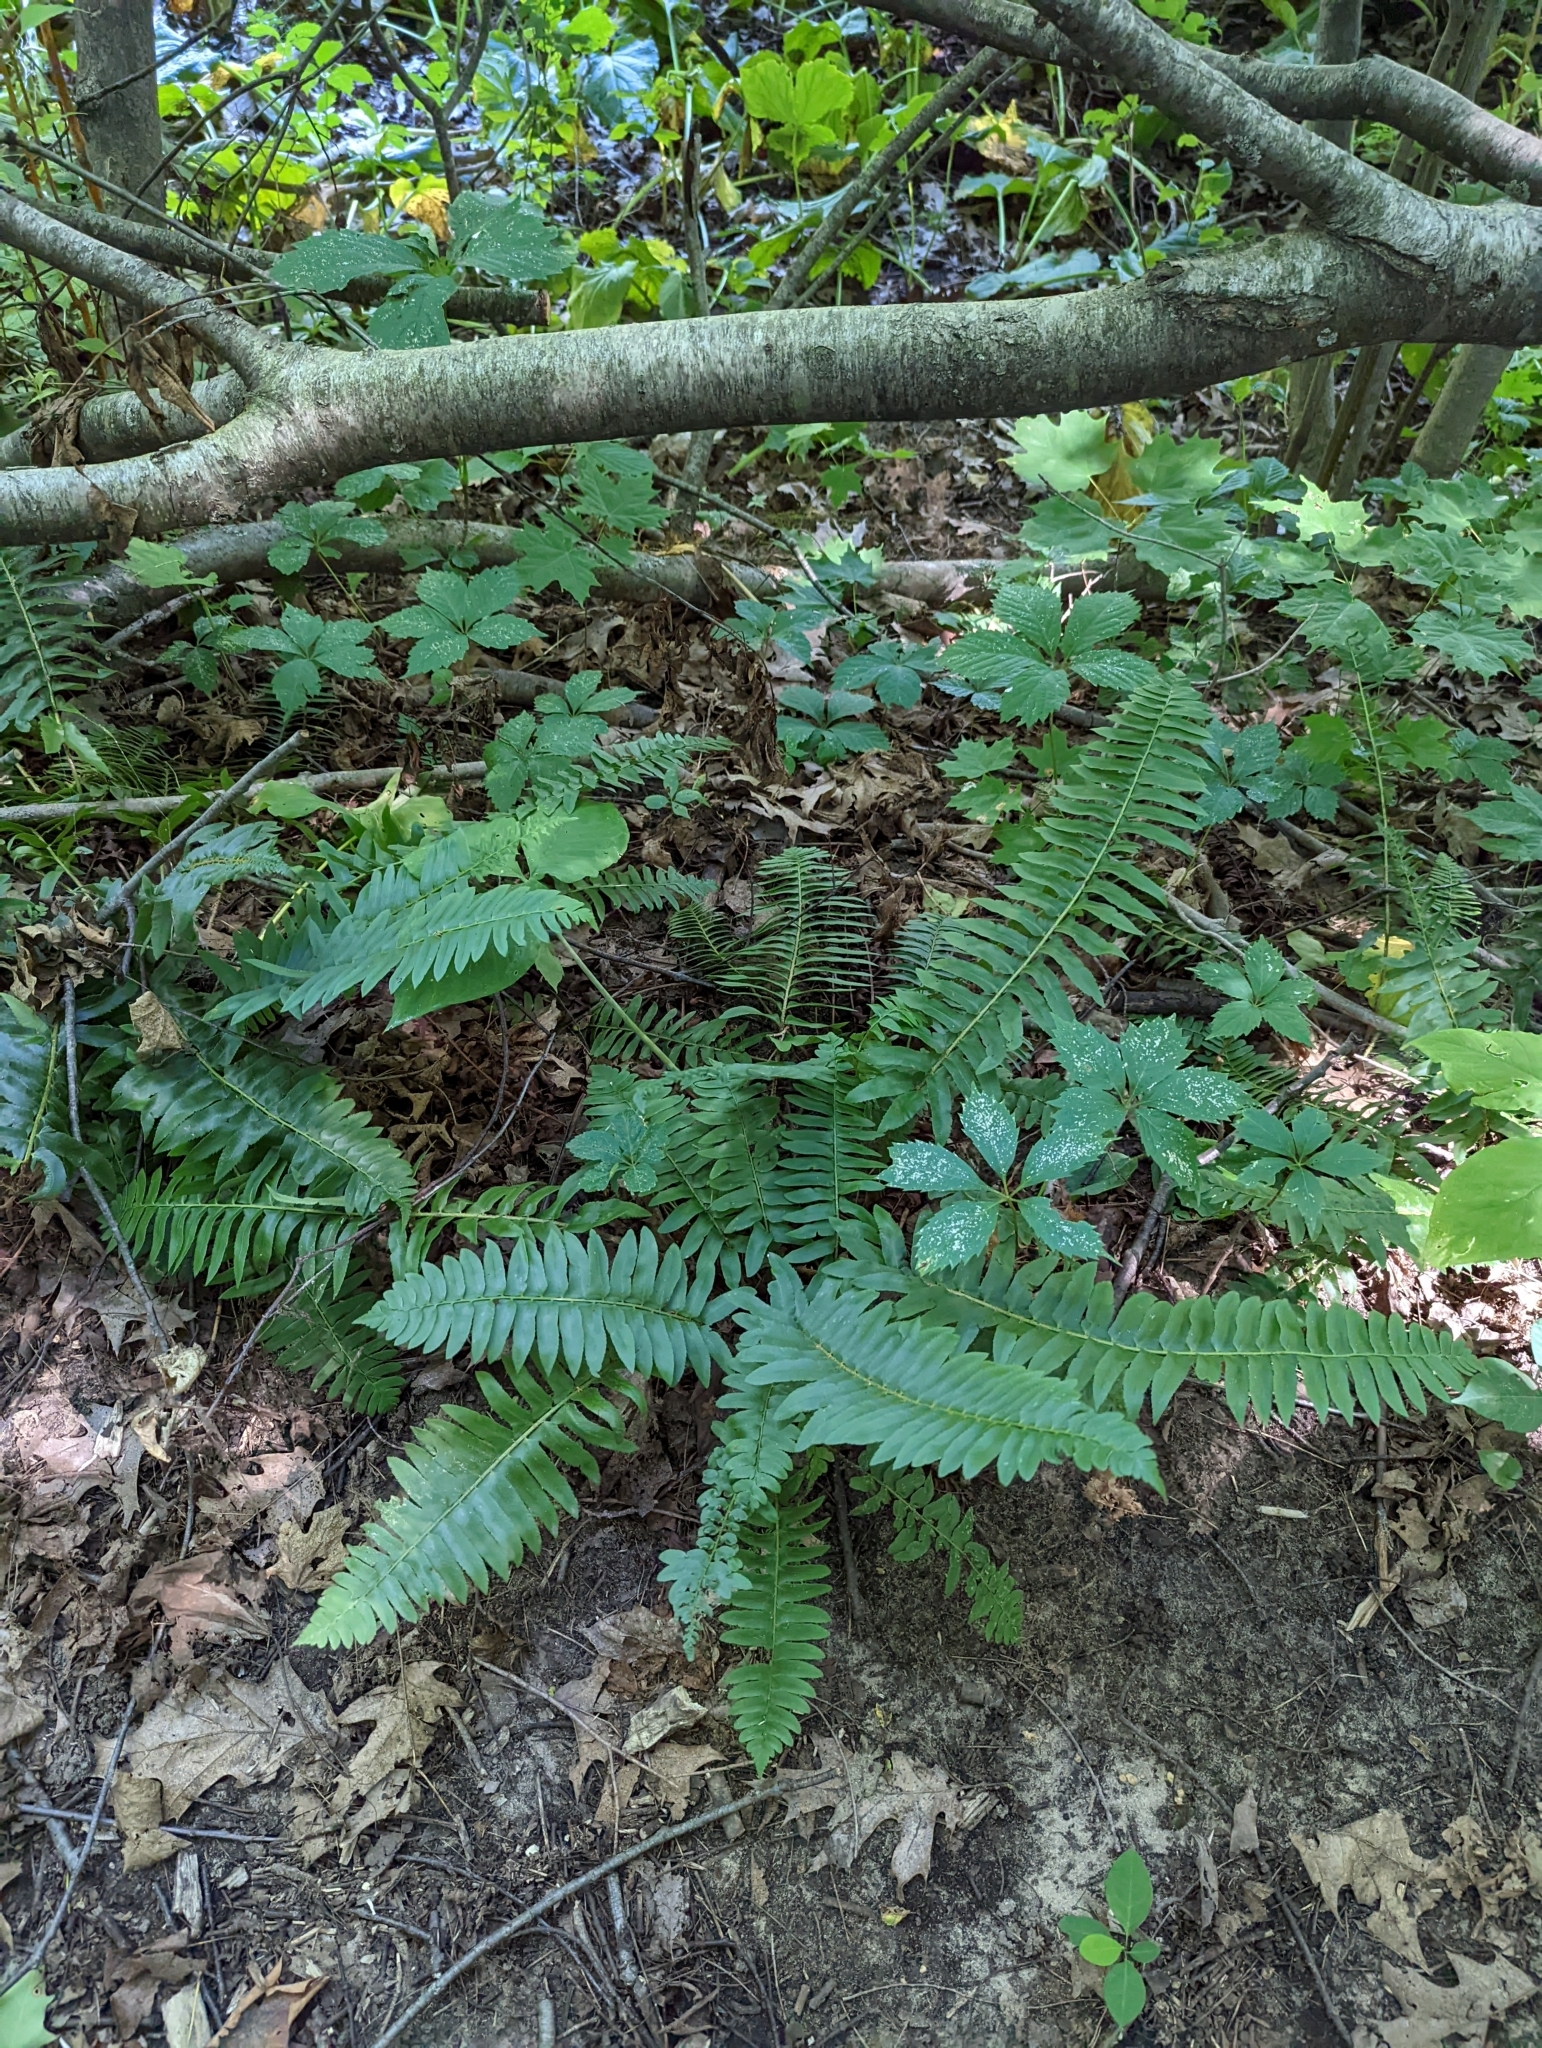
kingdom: Plantae
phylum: Tracheophyta
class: Polypodiopsida
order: Polypodiales
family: Dryopteridaceae
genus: Polystichum
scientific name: Polystichum acrostichoides
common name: Christmas fern
